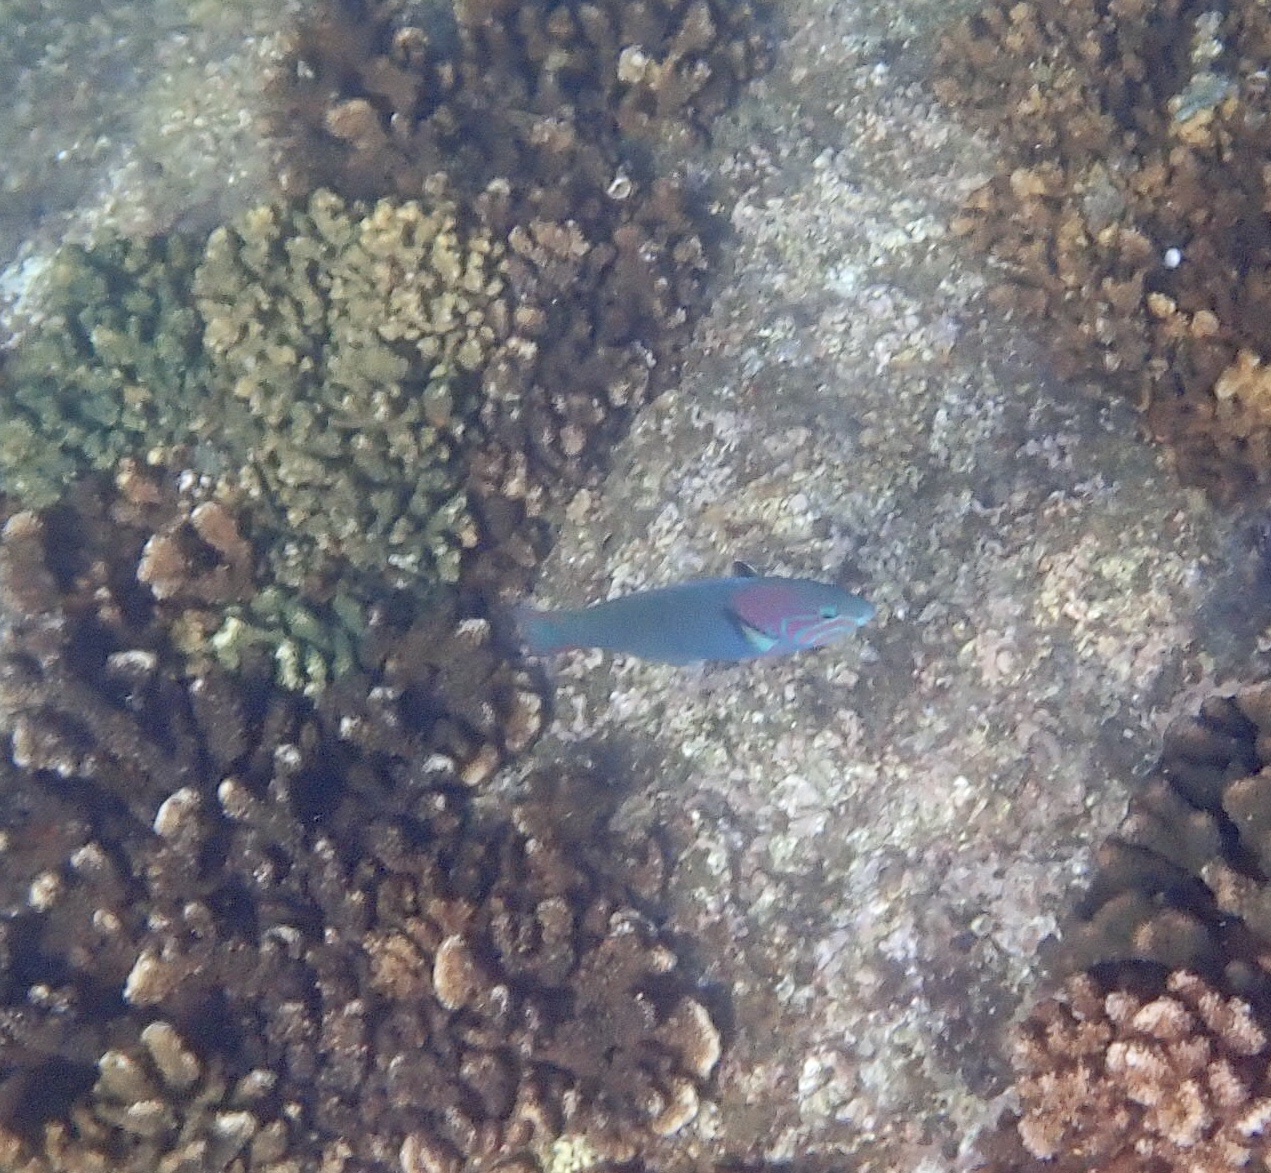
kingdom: Animalia
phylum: Chordata
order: Perciformes
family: Labridae
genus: Thalassoma
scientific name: Thalassoma grammaticum
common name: Sunset wrasse
